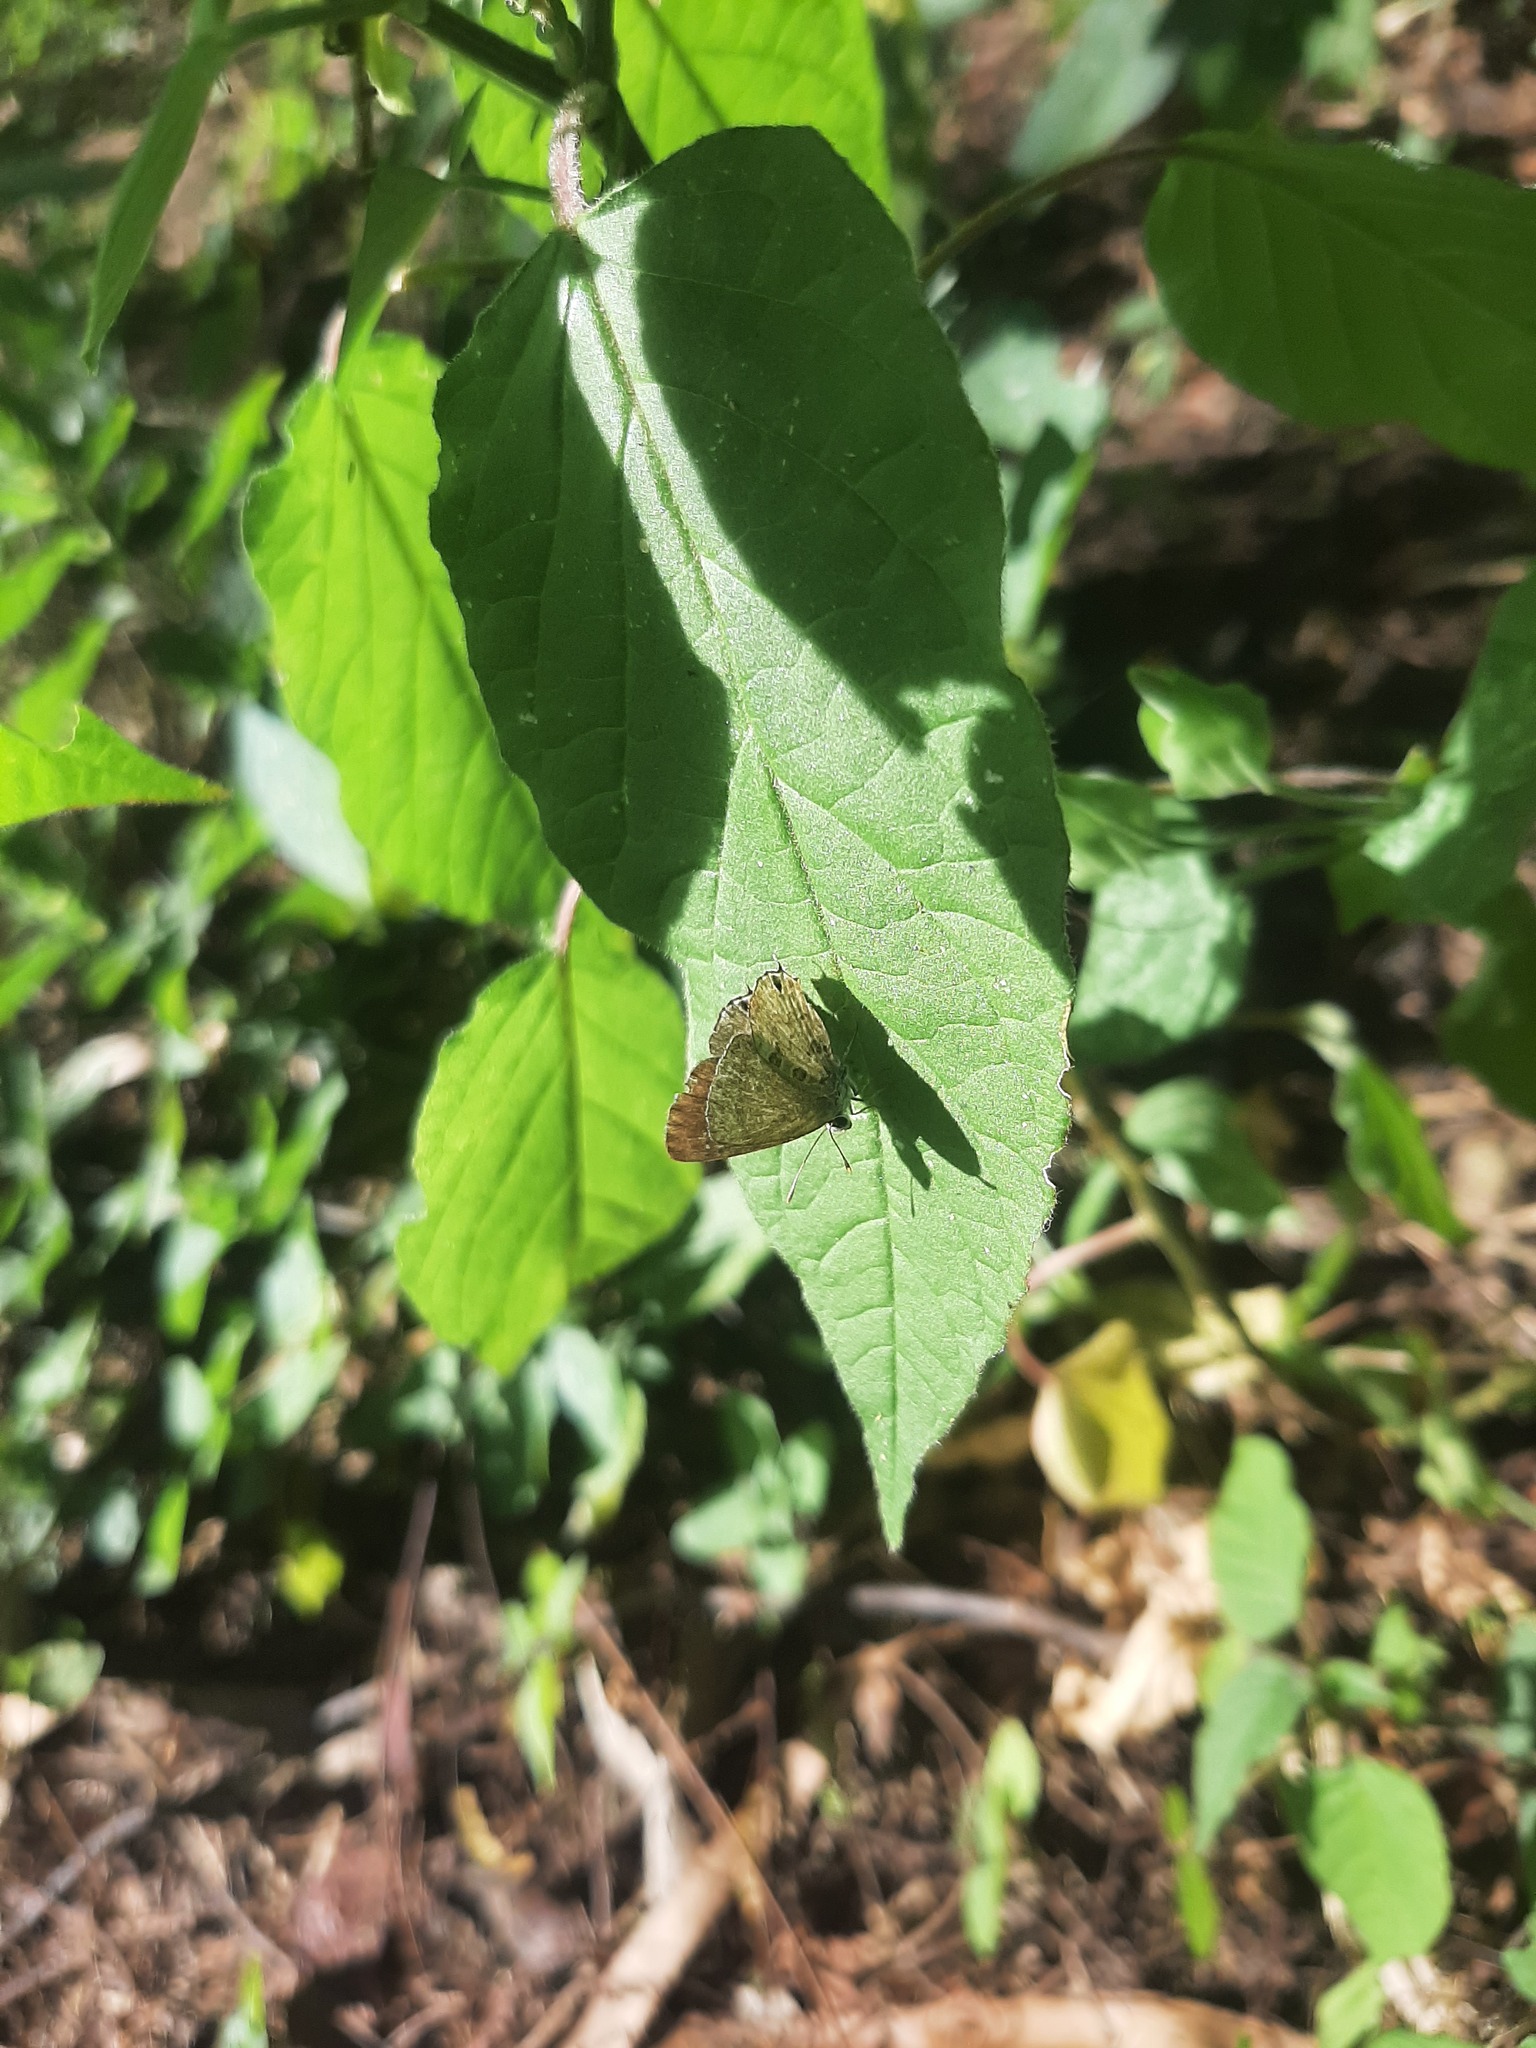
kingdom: Animalia
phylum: Arthropoda
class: Insecta
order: Lepidoptera
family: Lycaenidae
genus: Strymon
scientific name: Strymon astiocha
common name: Gray-spotted scrub-hairstreak
